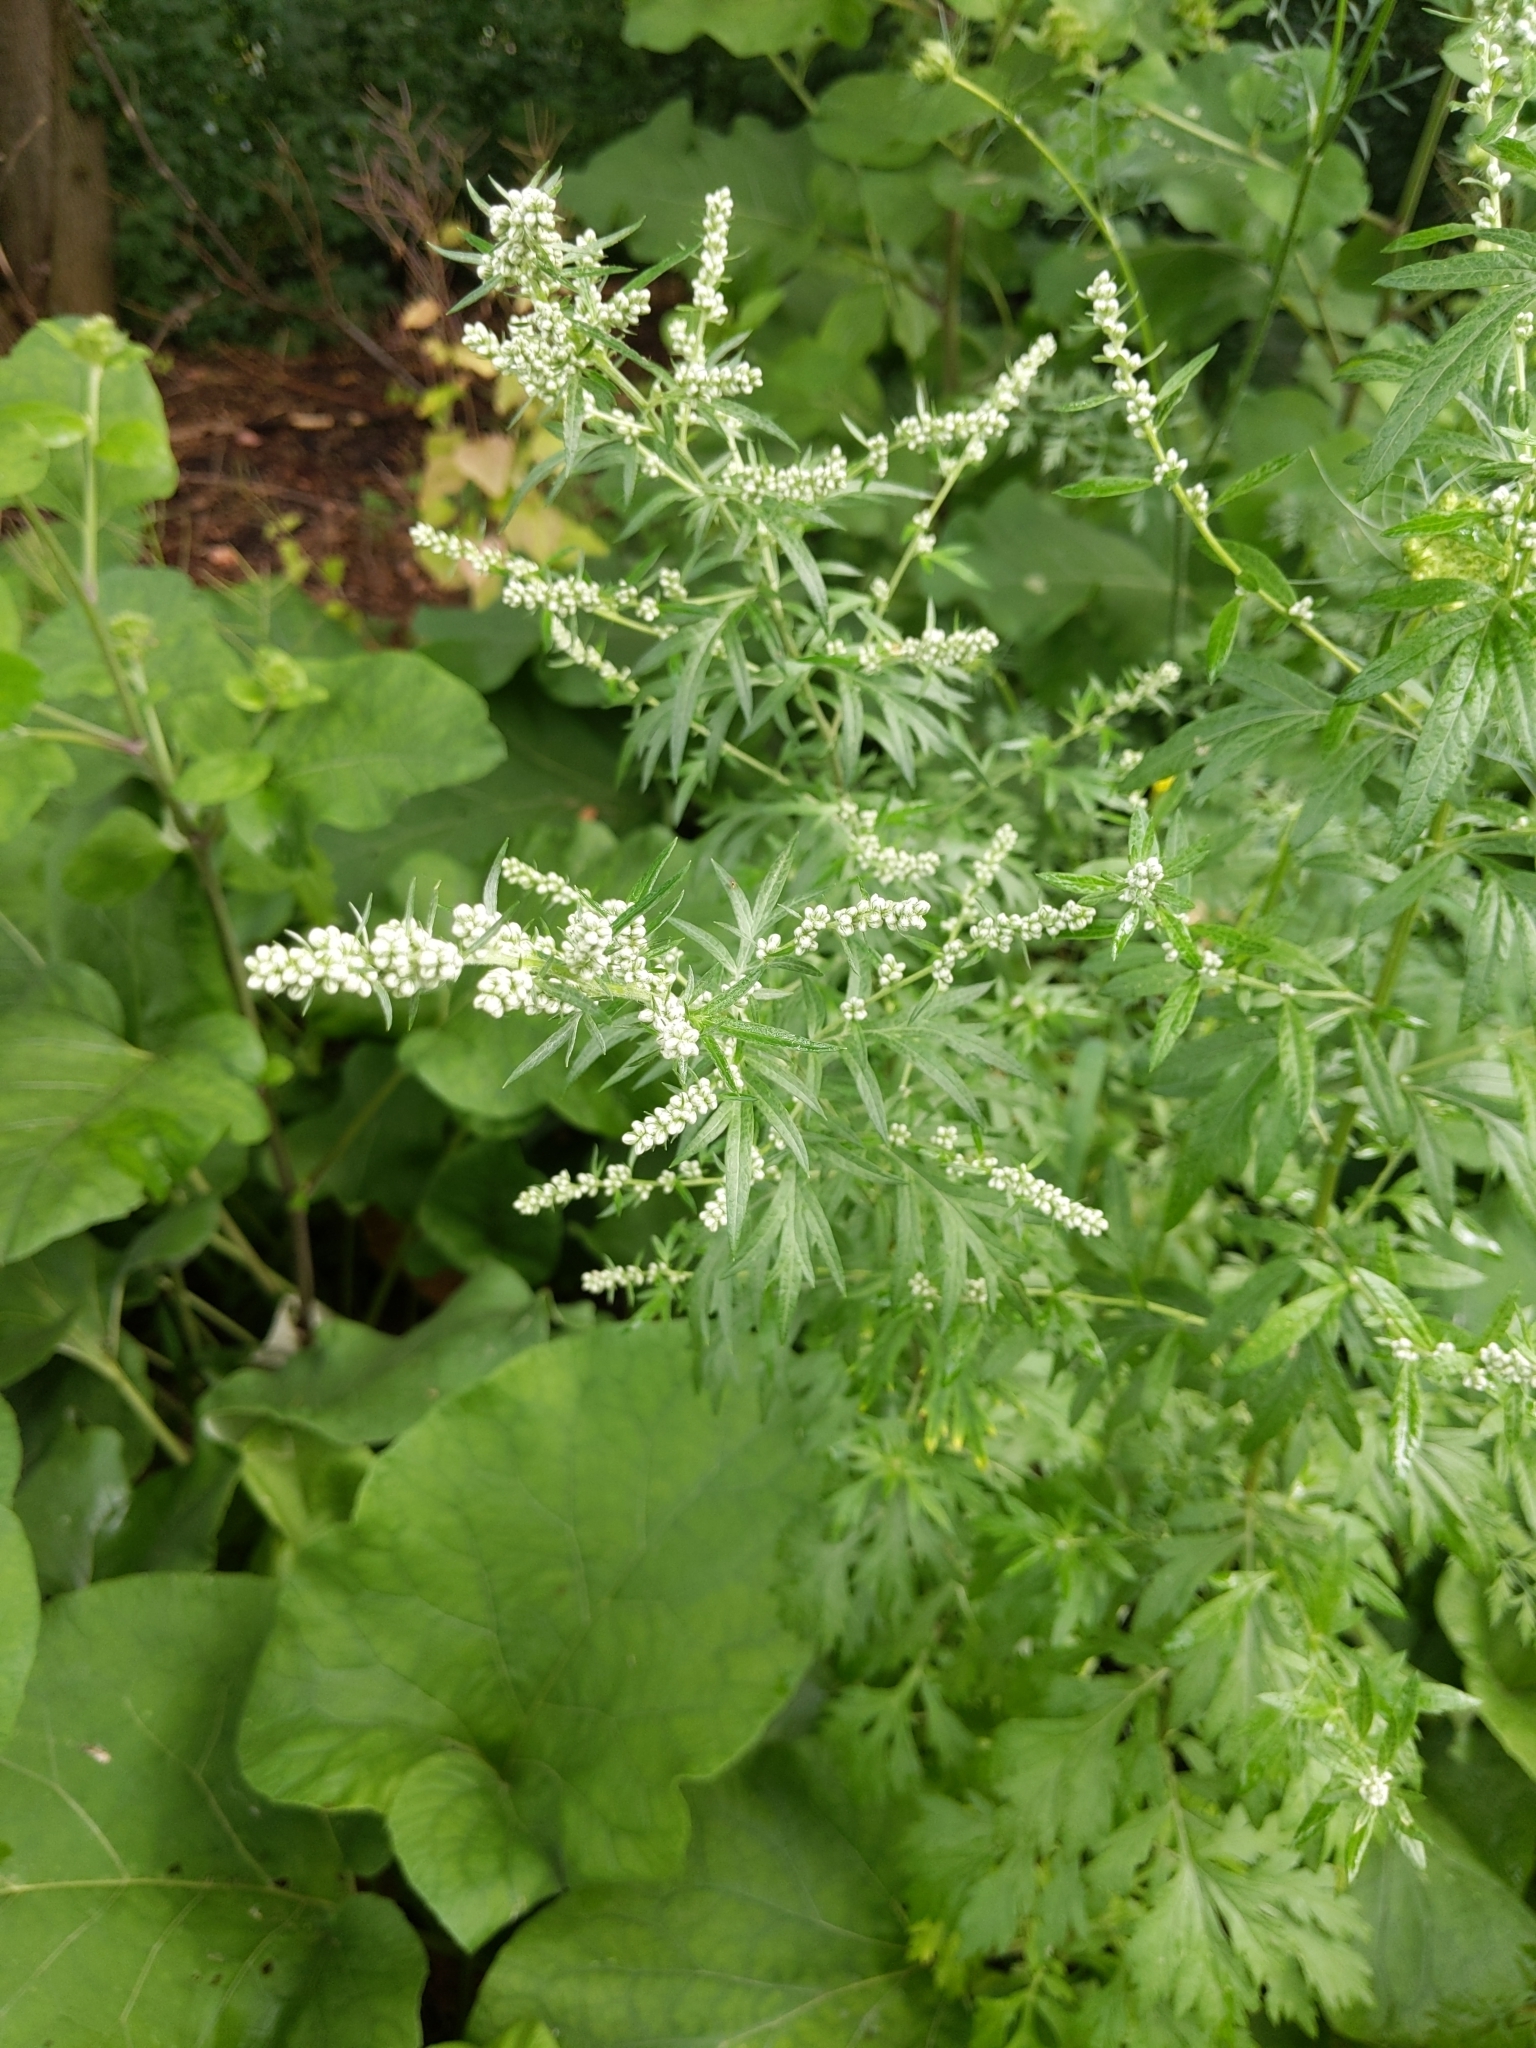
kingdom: Plantae
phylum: Tracheophyta
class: Magnoliopsida
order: Asterales
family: Asteraceae
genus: Artemisia
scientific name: Artemisia vulgaris
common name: Mugwort
